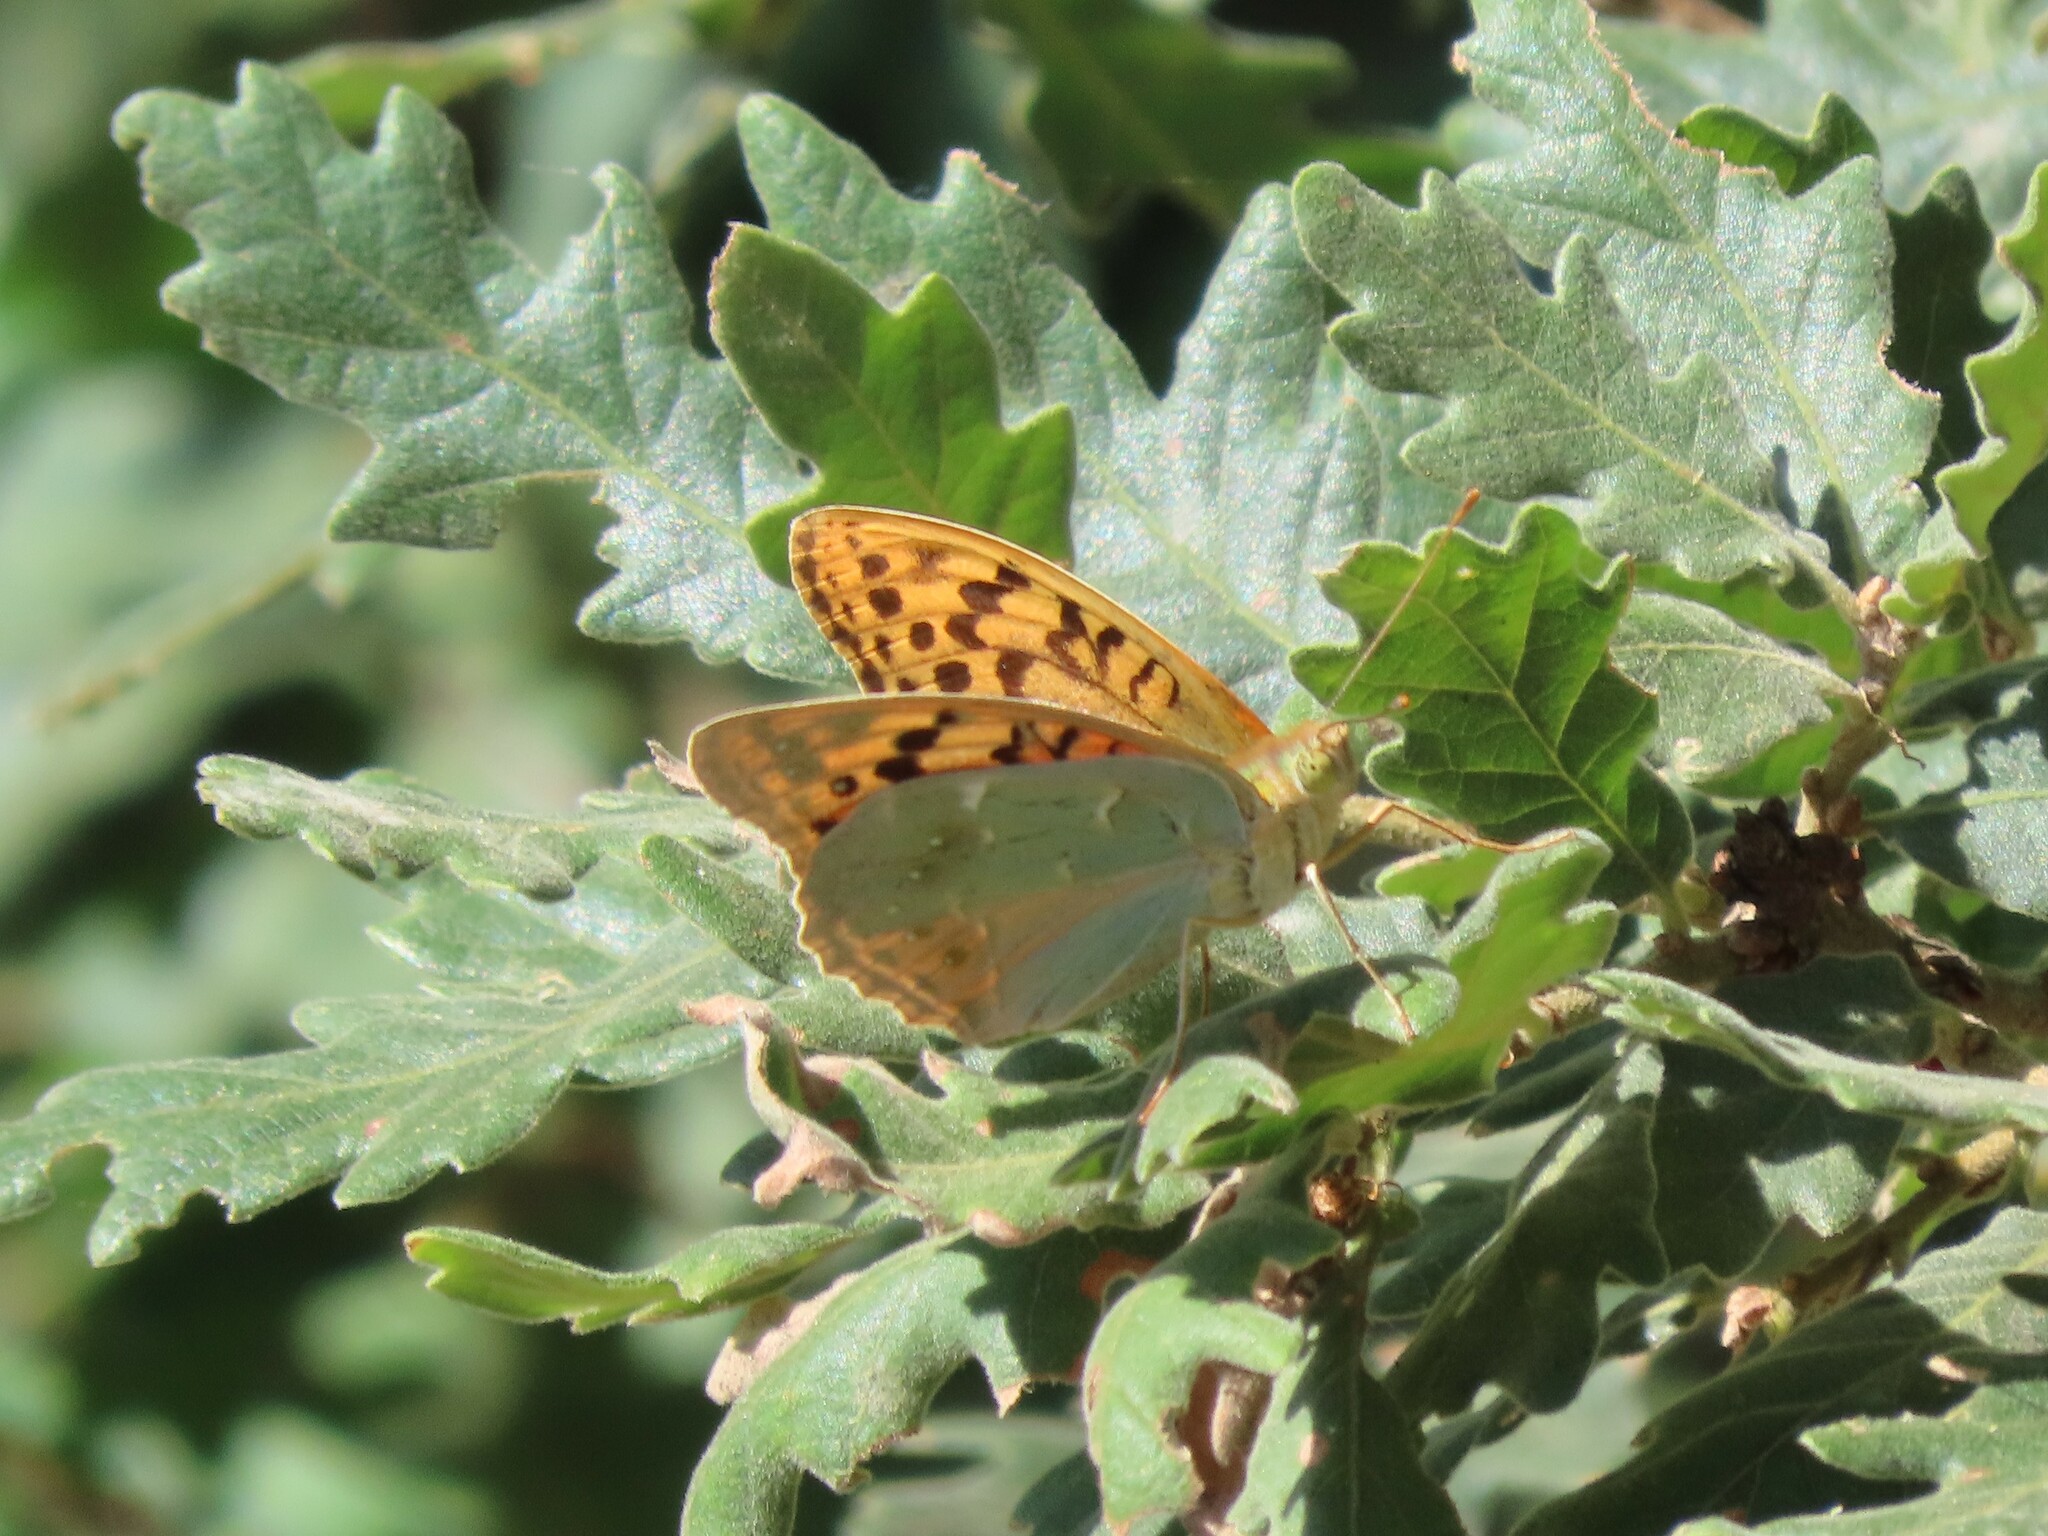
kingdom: Animalia
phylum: Arthropoda
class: Insecta
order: Lepidoptera
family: Nymphalidae
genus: Damora
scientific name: Damora pandora
